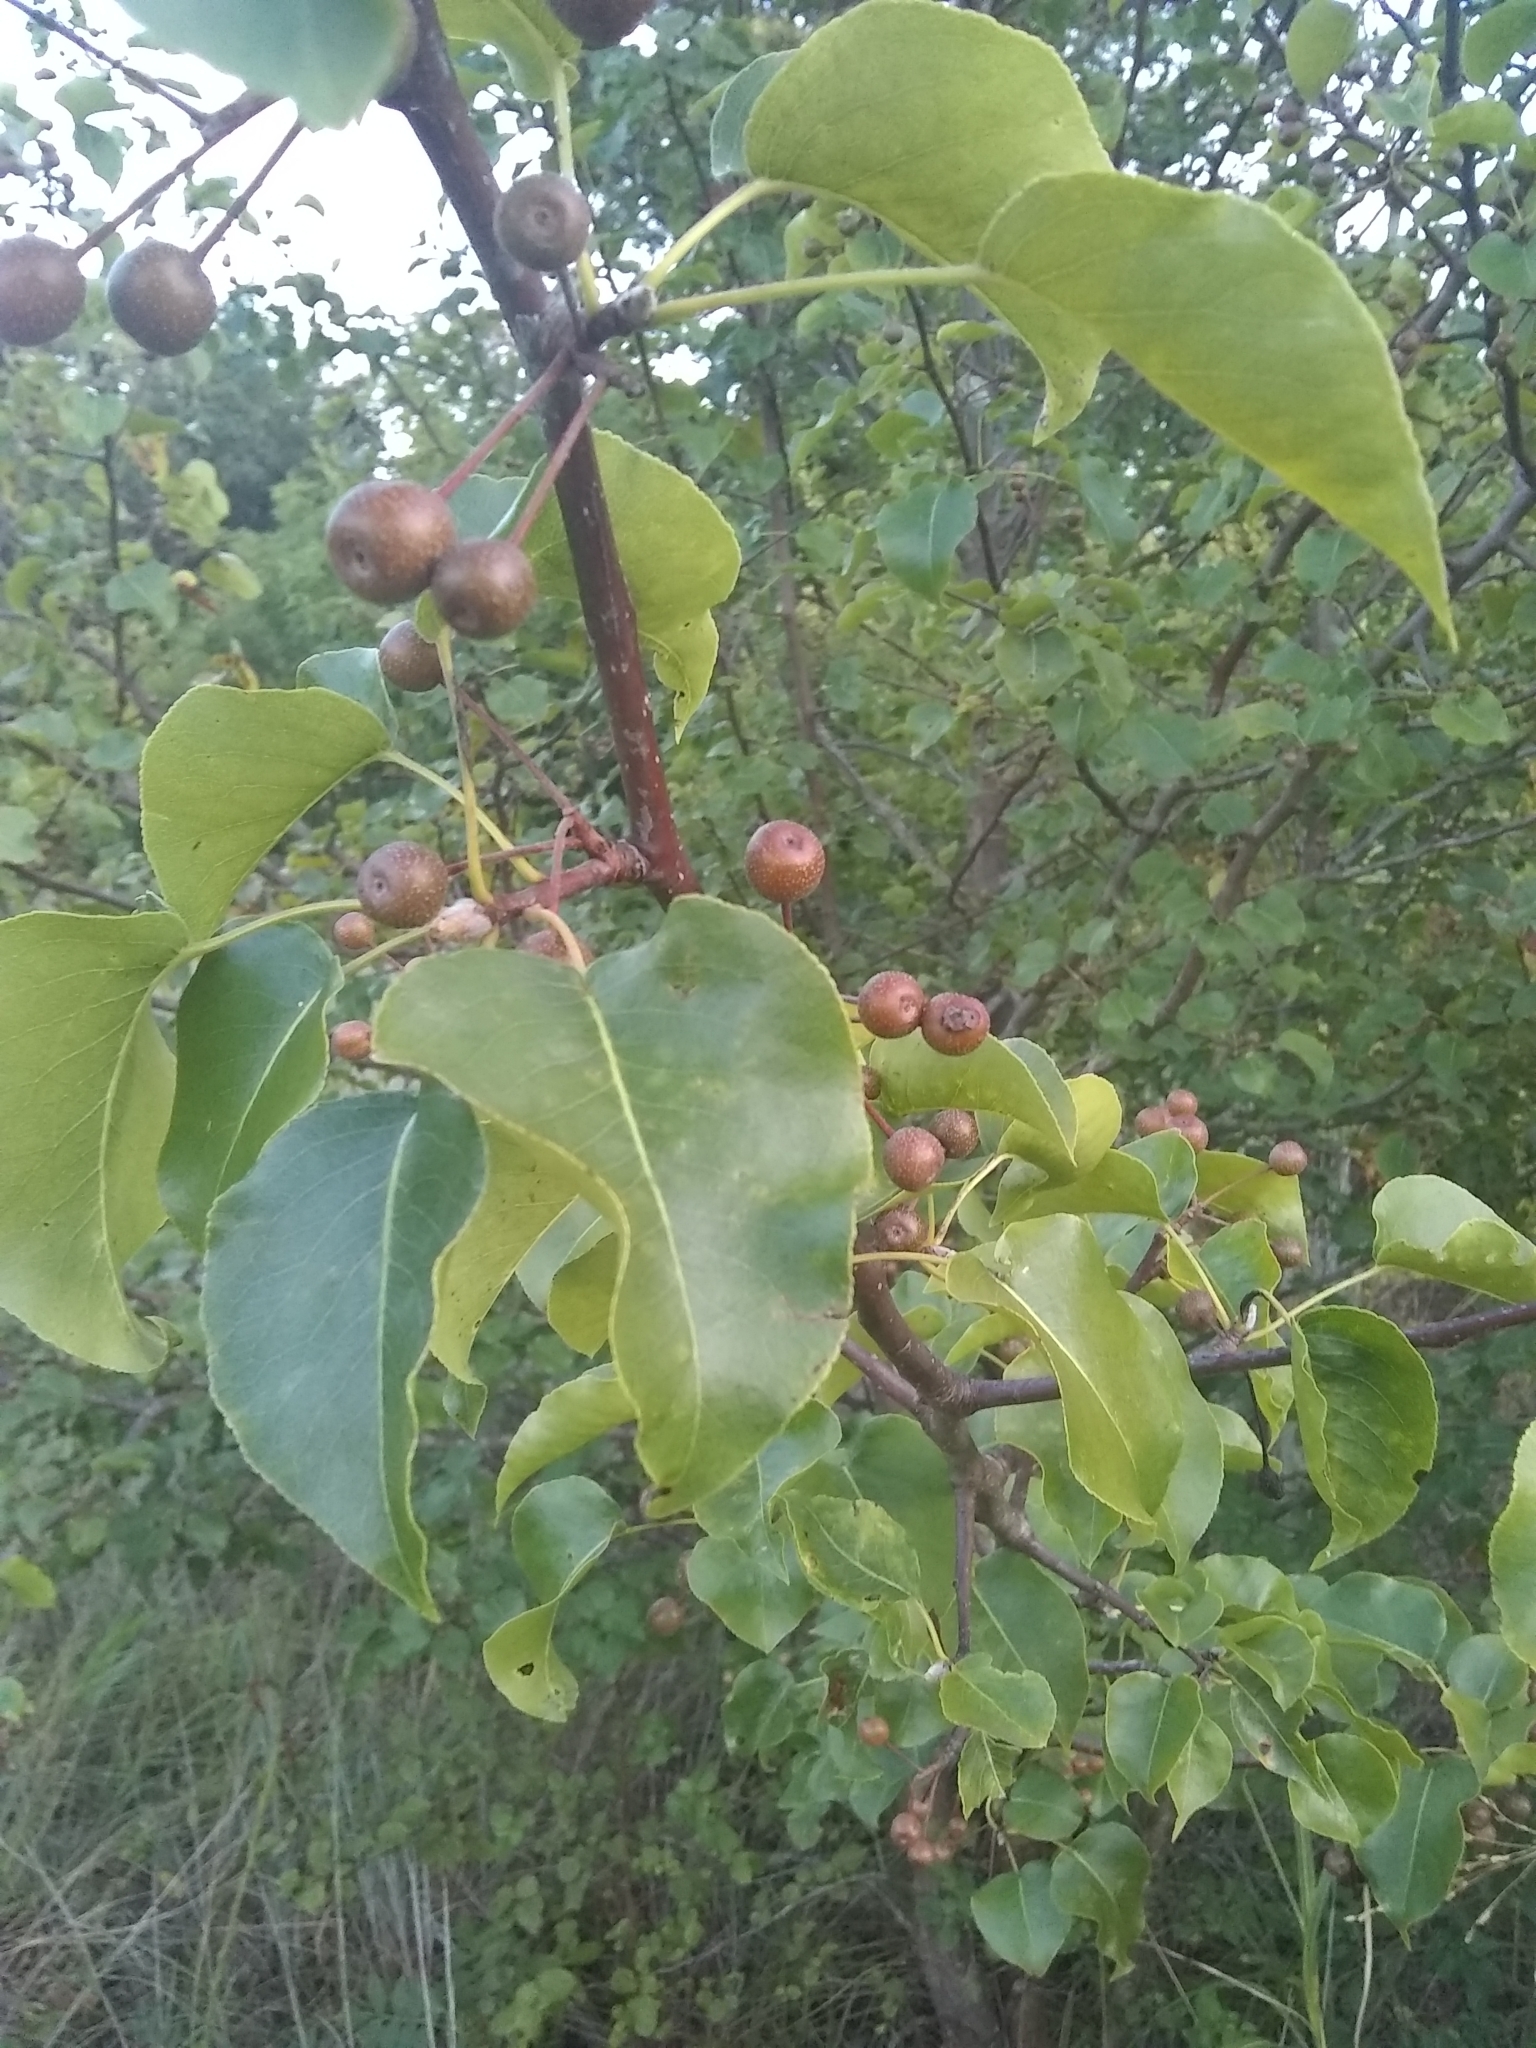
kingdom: Plantae
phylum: Tracheophyta
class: Magnoliopsida
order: Rosales
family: Rosaceae
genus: Pyrus
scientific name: Pyrus calleryana
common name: Callery pear
